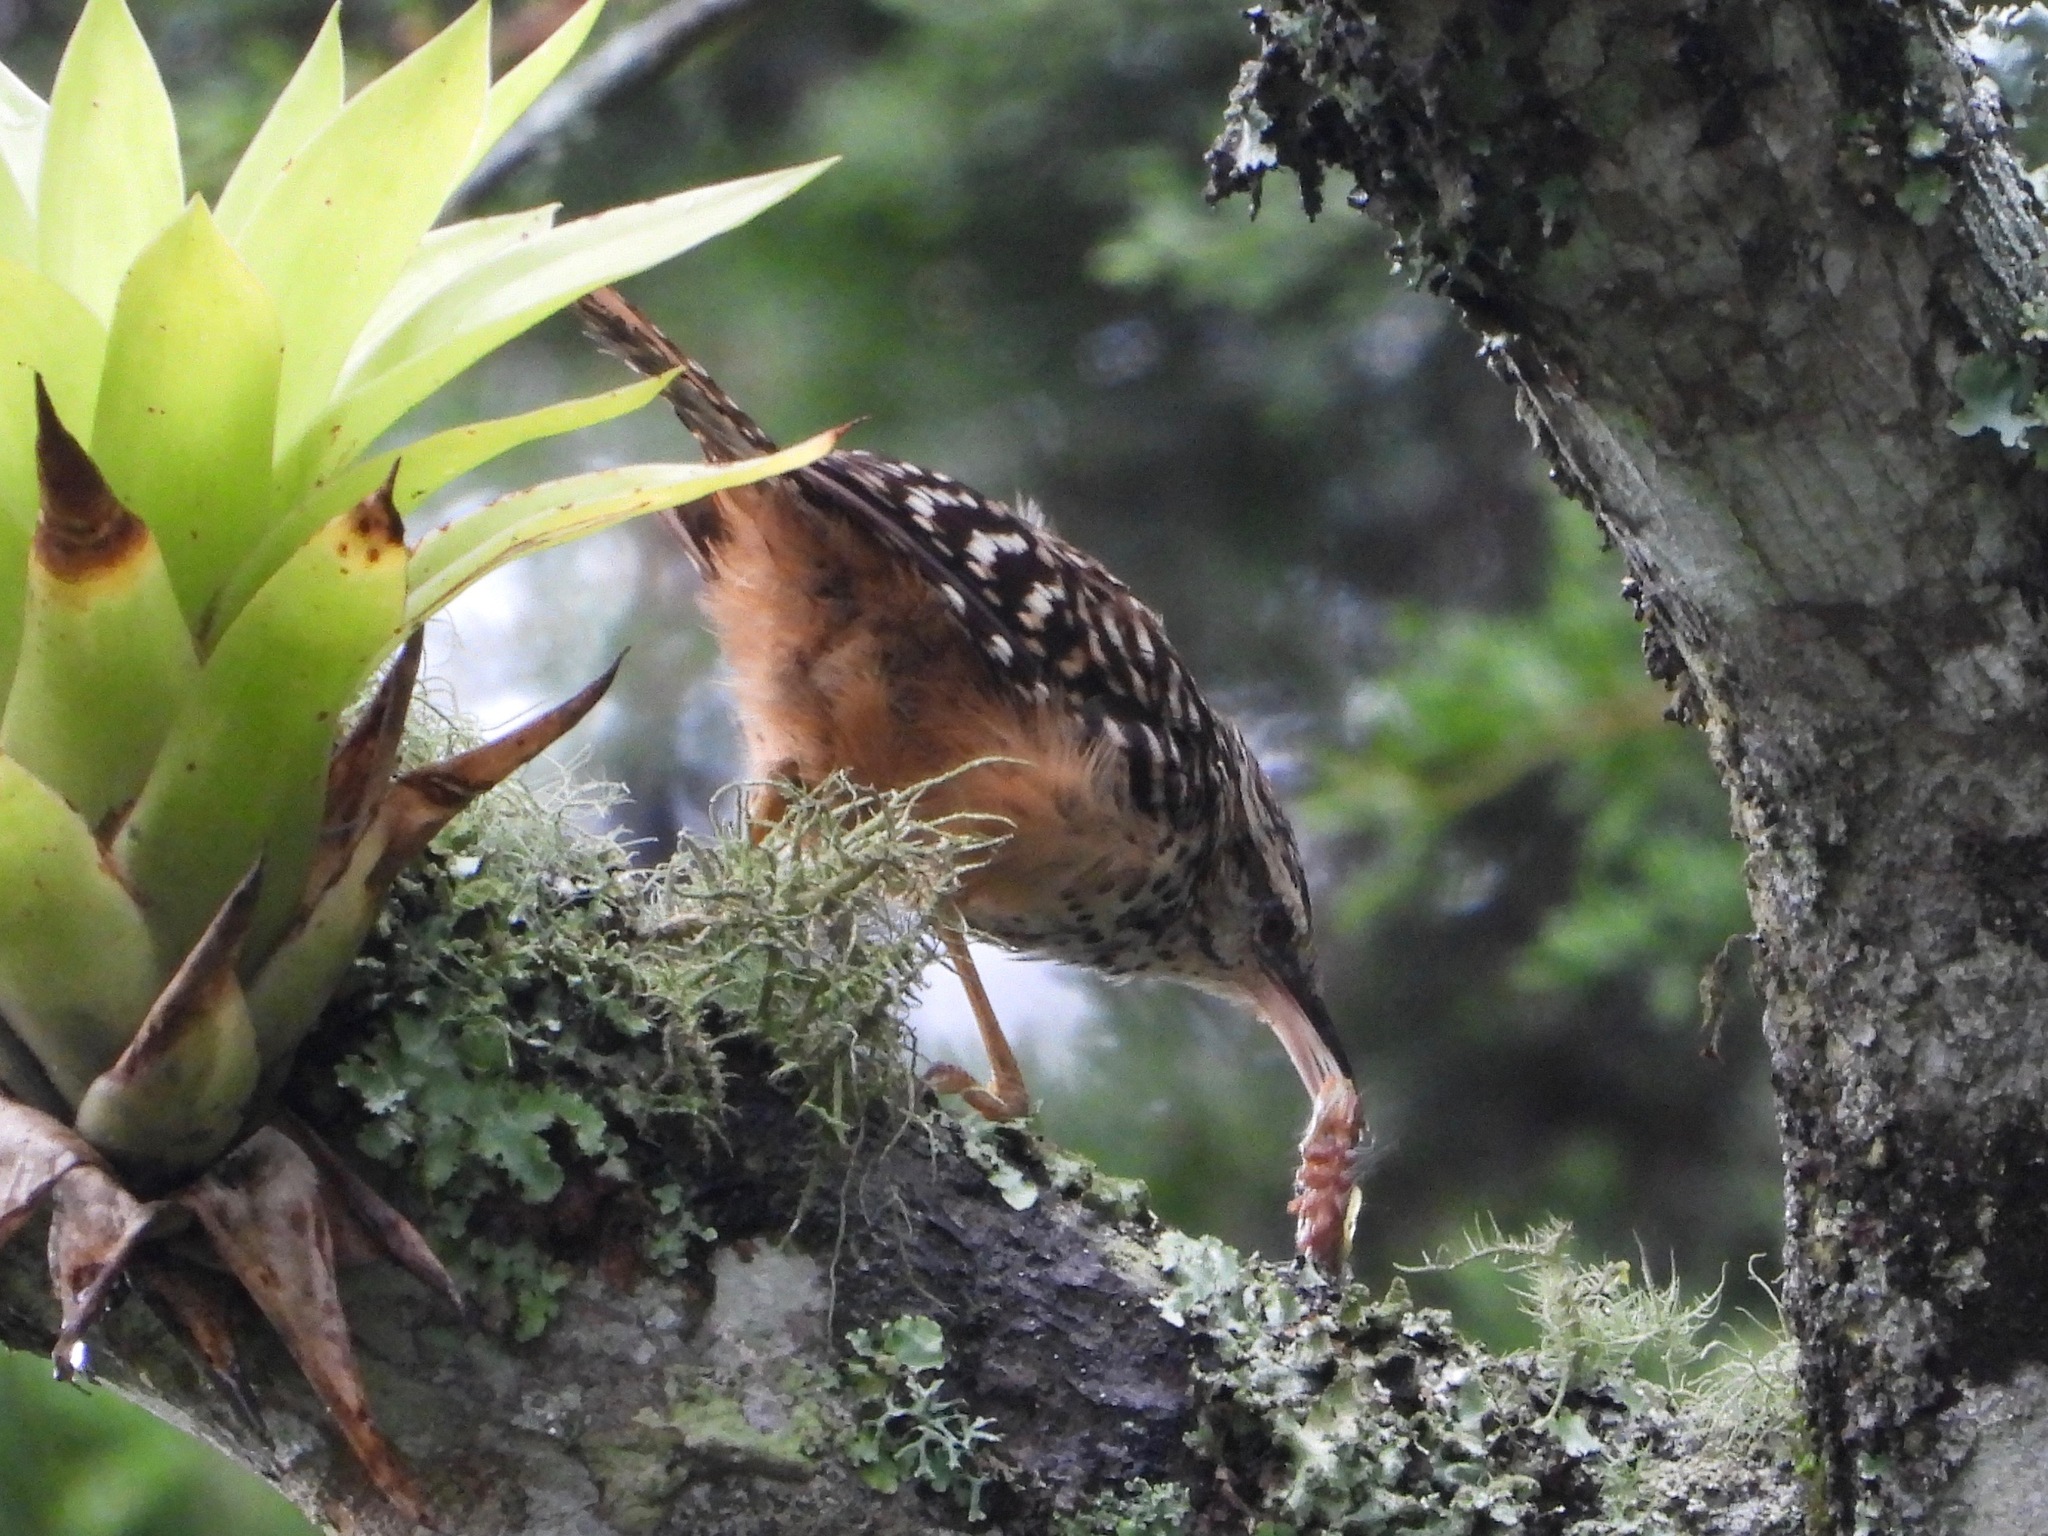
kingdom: Animalia
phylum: Chordata
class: Aves
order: Passeriformes
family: Troglodytidae
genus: Campylorhynchus
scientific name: Campylorhynchus zonatus
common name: Band-backed wren
